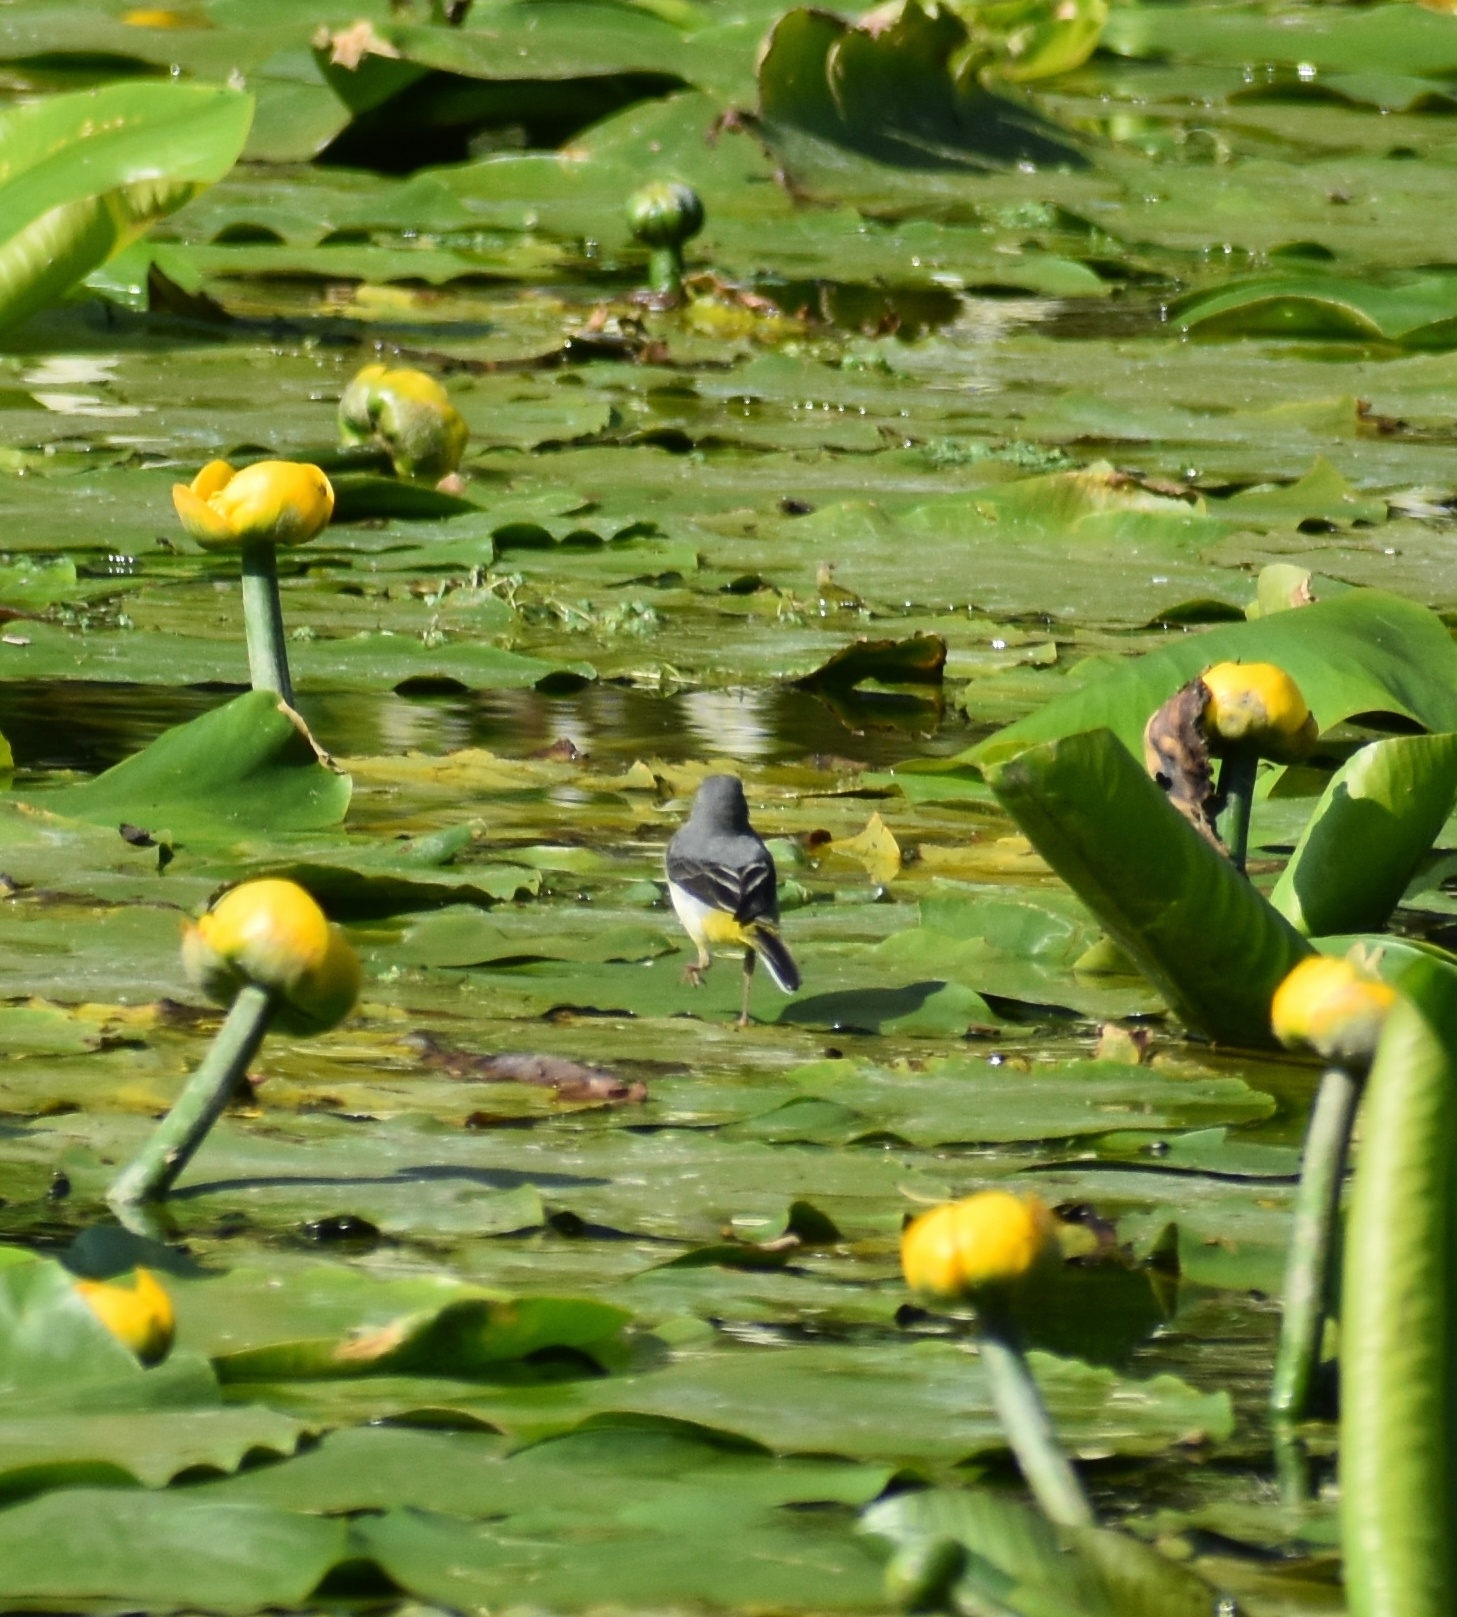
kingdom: Animalia
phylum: Chordata
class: Aves
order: Passeriformes
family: Motacillidae
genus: Motacilla
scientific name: Motacilla cinerea
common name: Grey wagtail
